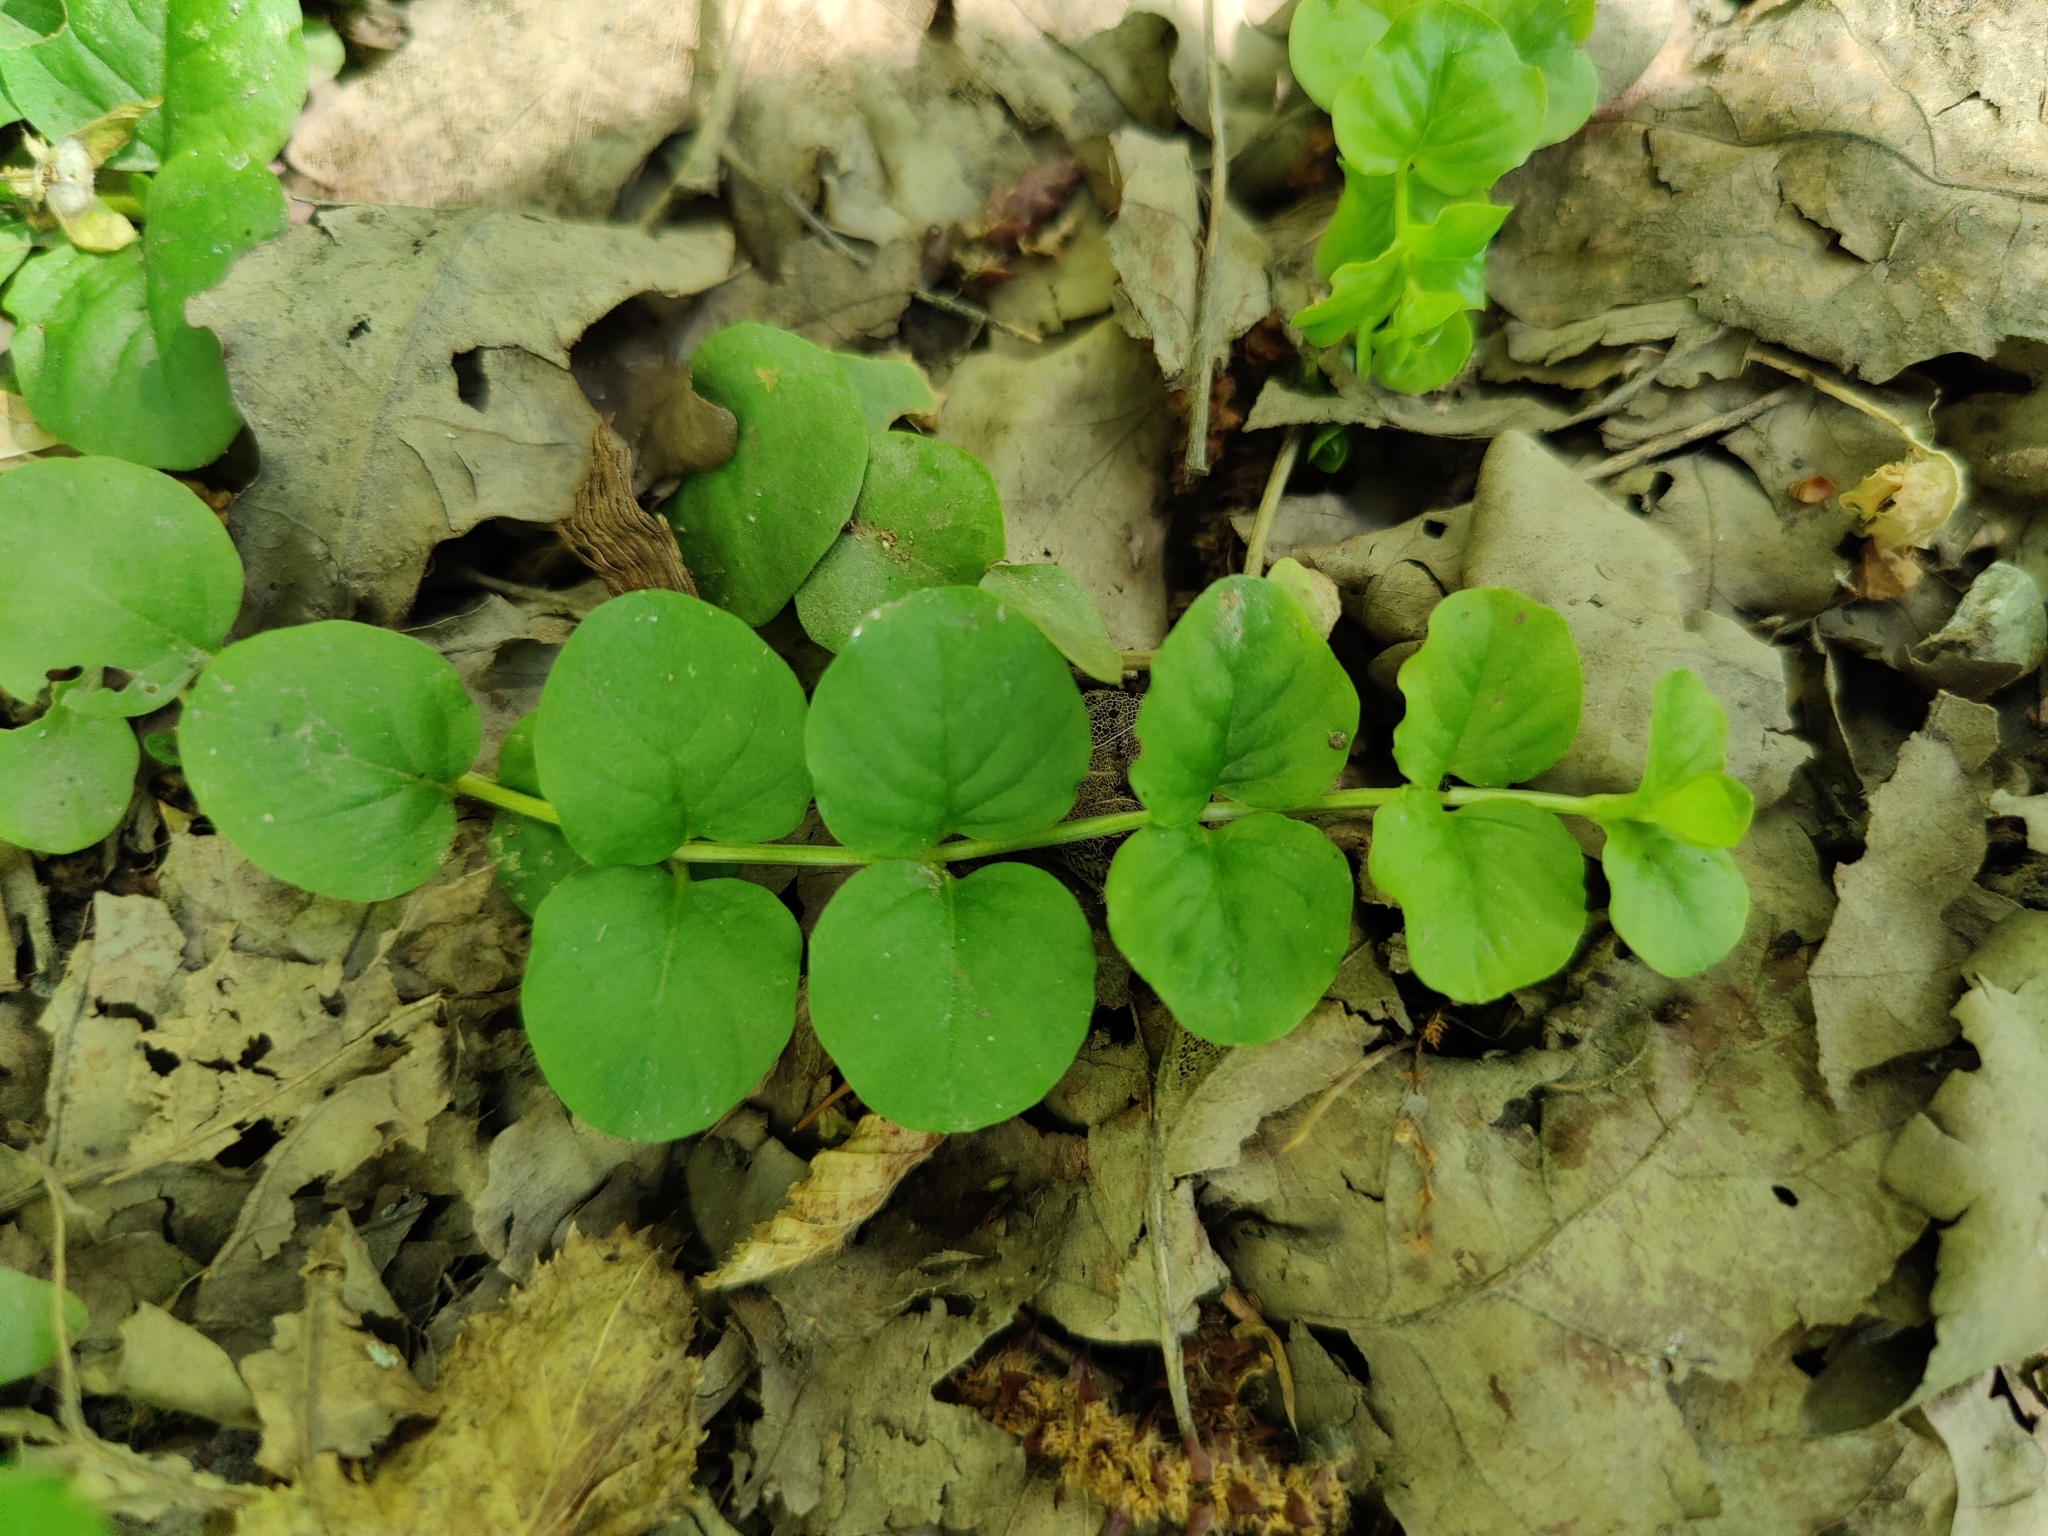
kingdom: Plantae
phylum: Tracheophyta
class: Magnoliopsida
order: Ericales
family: Primulaceae
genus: Lysimachia
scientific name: Lysimachia nummularia
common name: Moneywort
